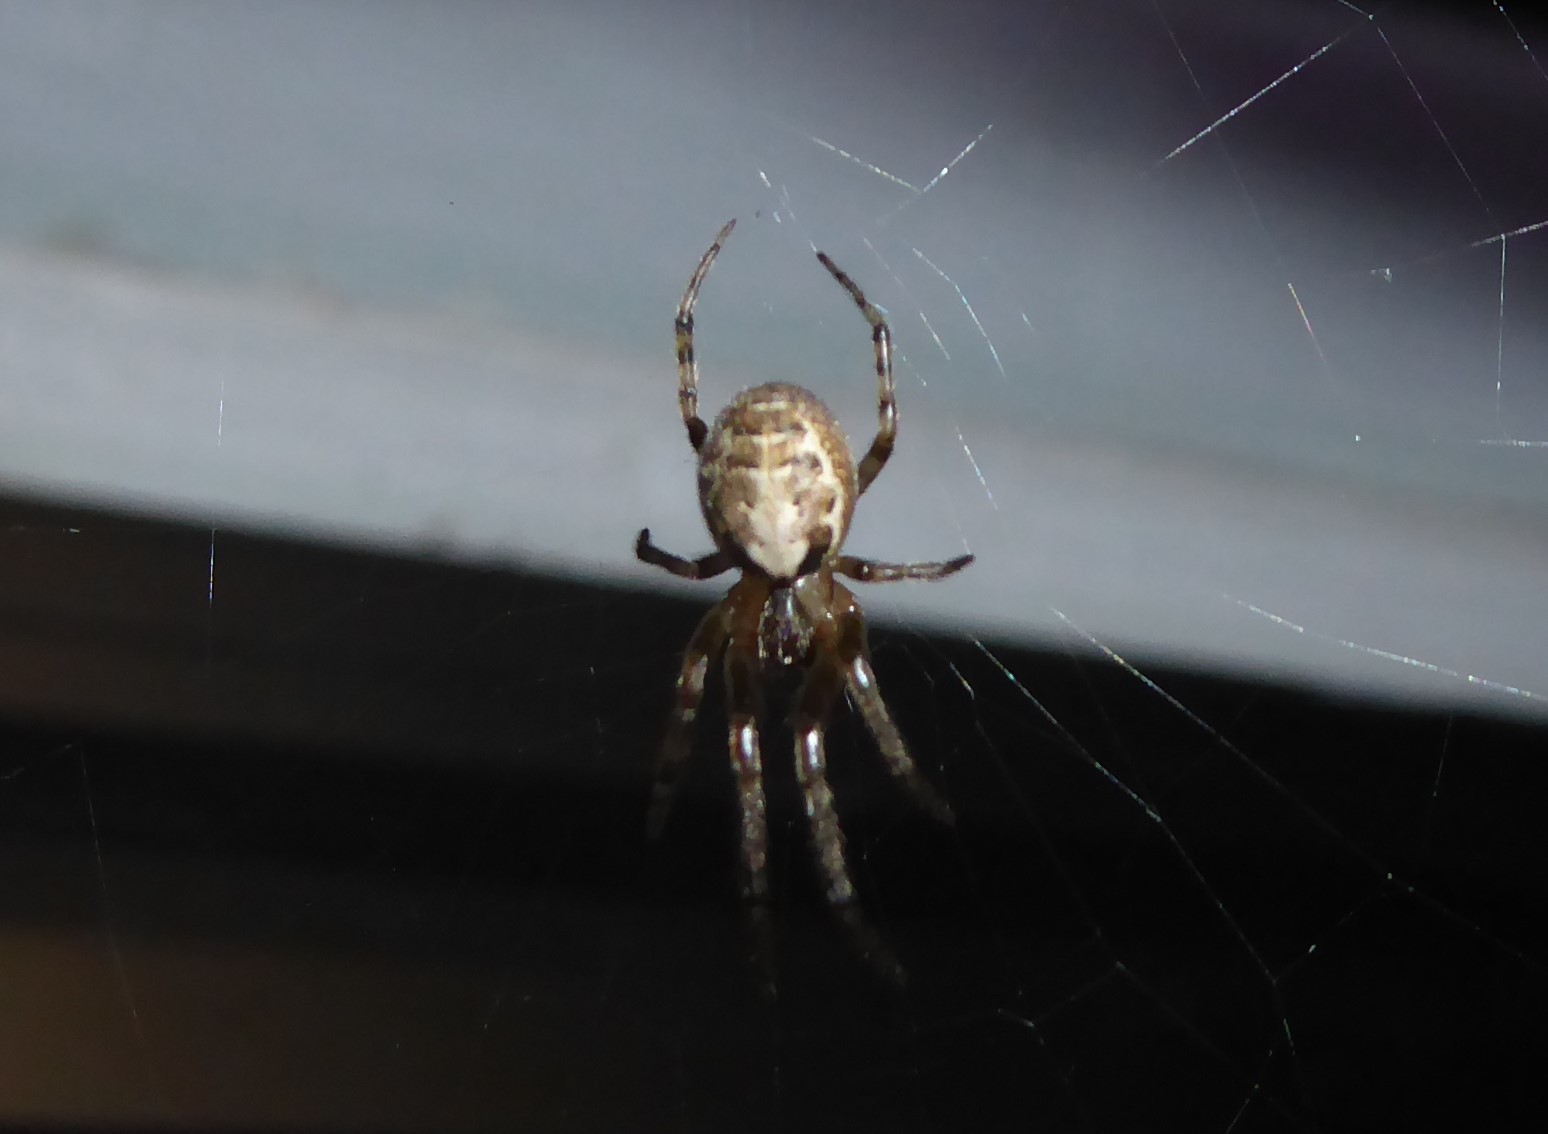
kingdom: Animalia
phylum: Arthropoda
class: Arachnida
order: Araneae
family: Araneidae
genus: Zygiella
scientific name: Zygiella x-notata
